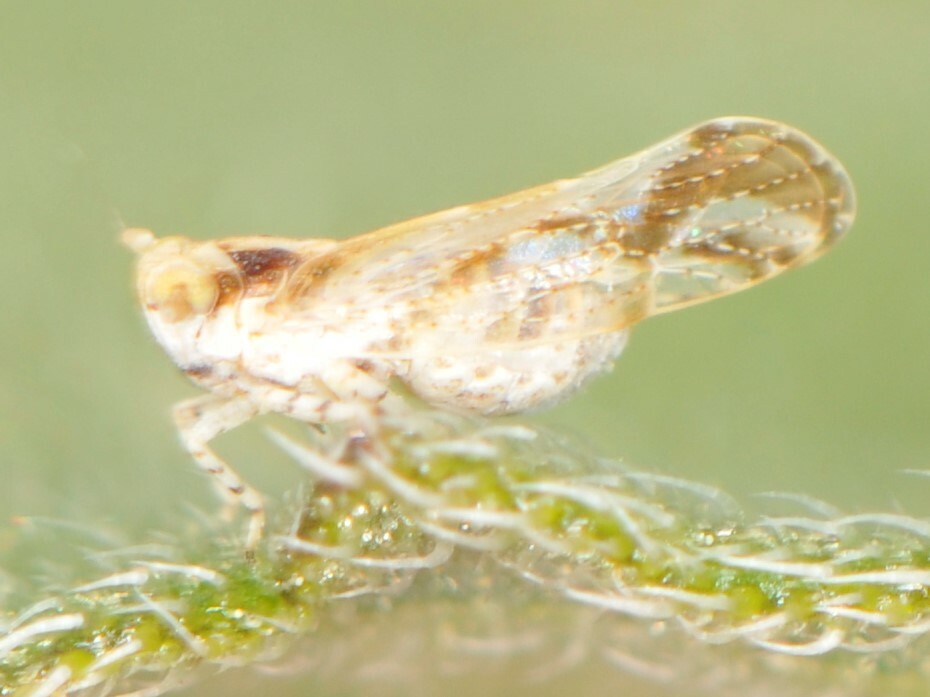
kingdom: Animalia
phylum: Arthropoda
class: Insecta
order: Hemiptera
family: Delphacidae
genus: Stobaera
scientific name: Stobaera
